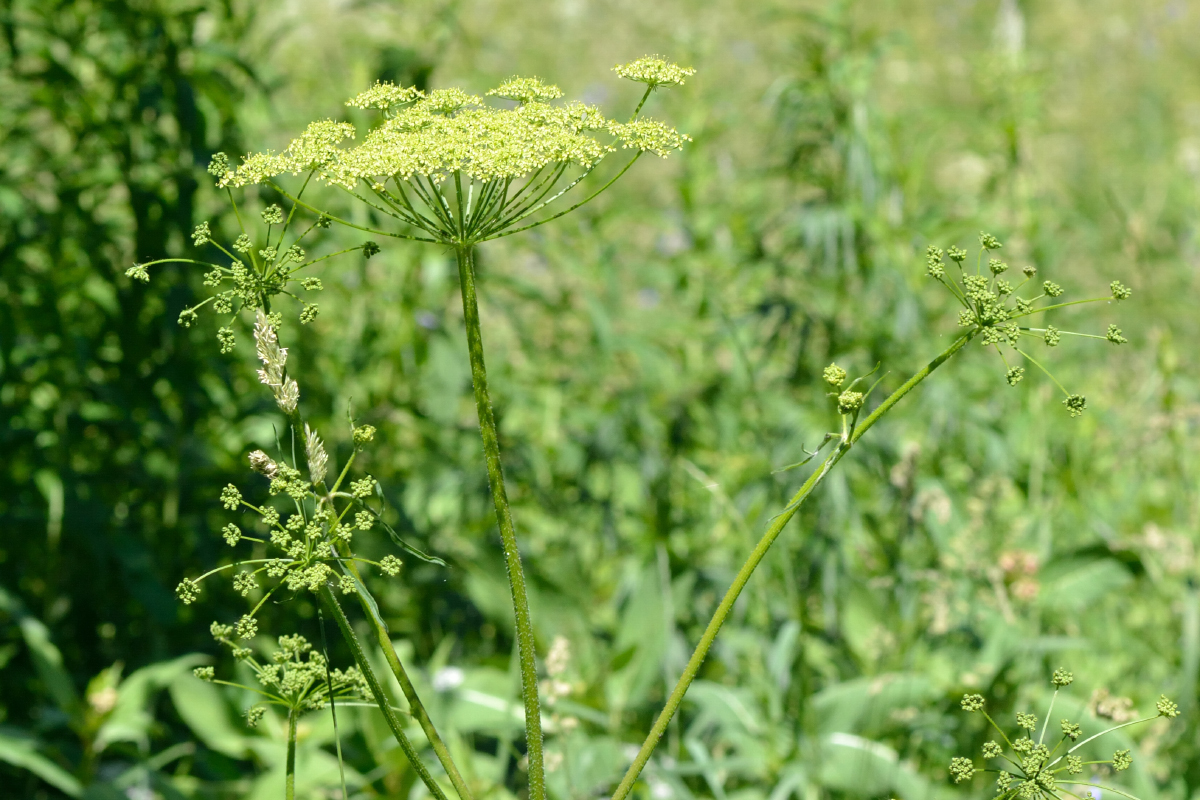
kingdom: Plantae
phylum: Tracheophyta
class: Magnoliopsida
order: Apiales
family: Apiaceae
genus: Heracleum
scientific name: Heracleum sphondylium
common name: Hogweed
